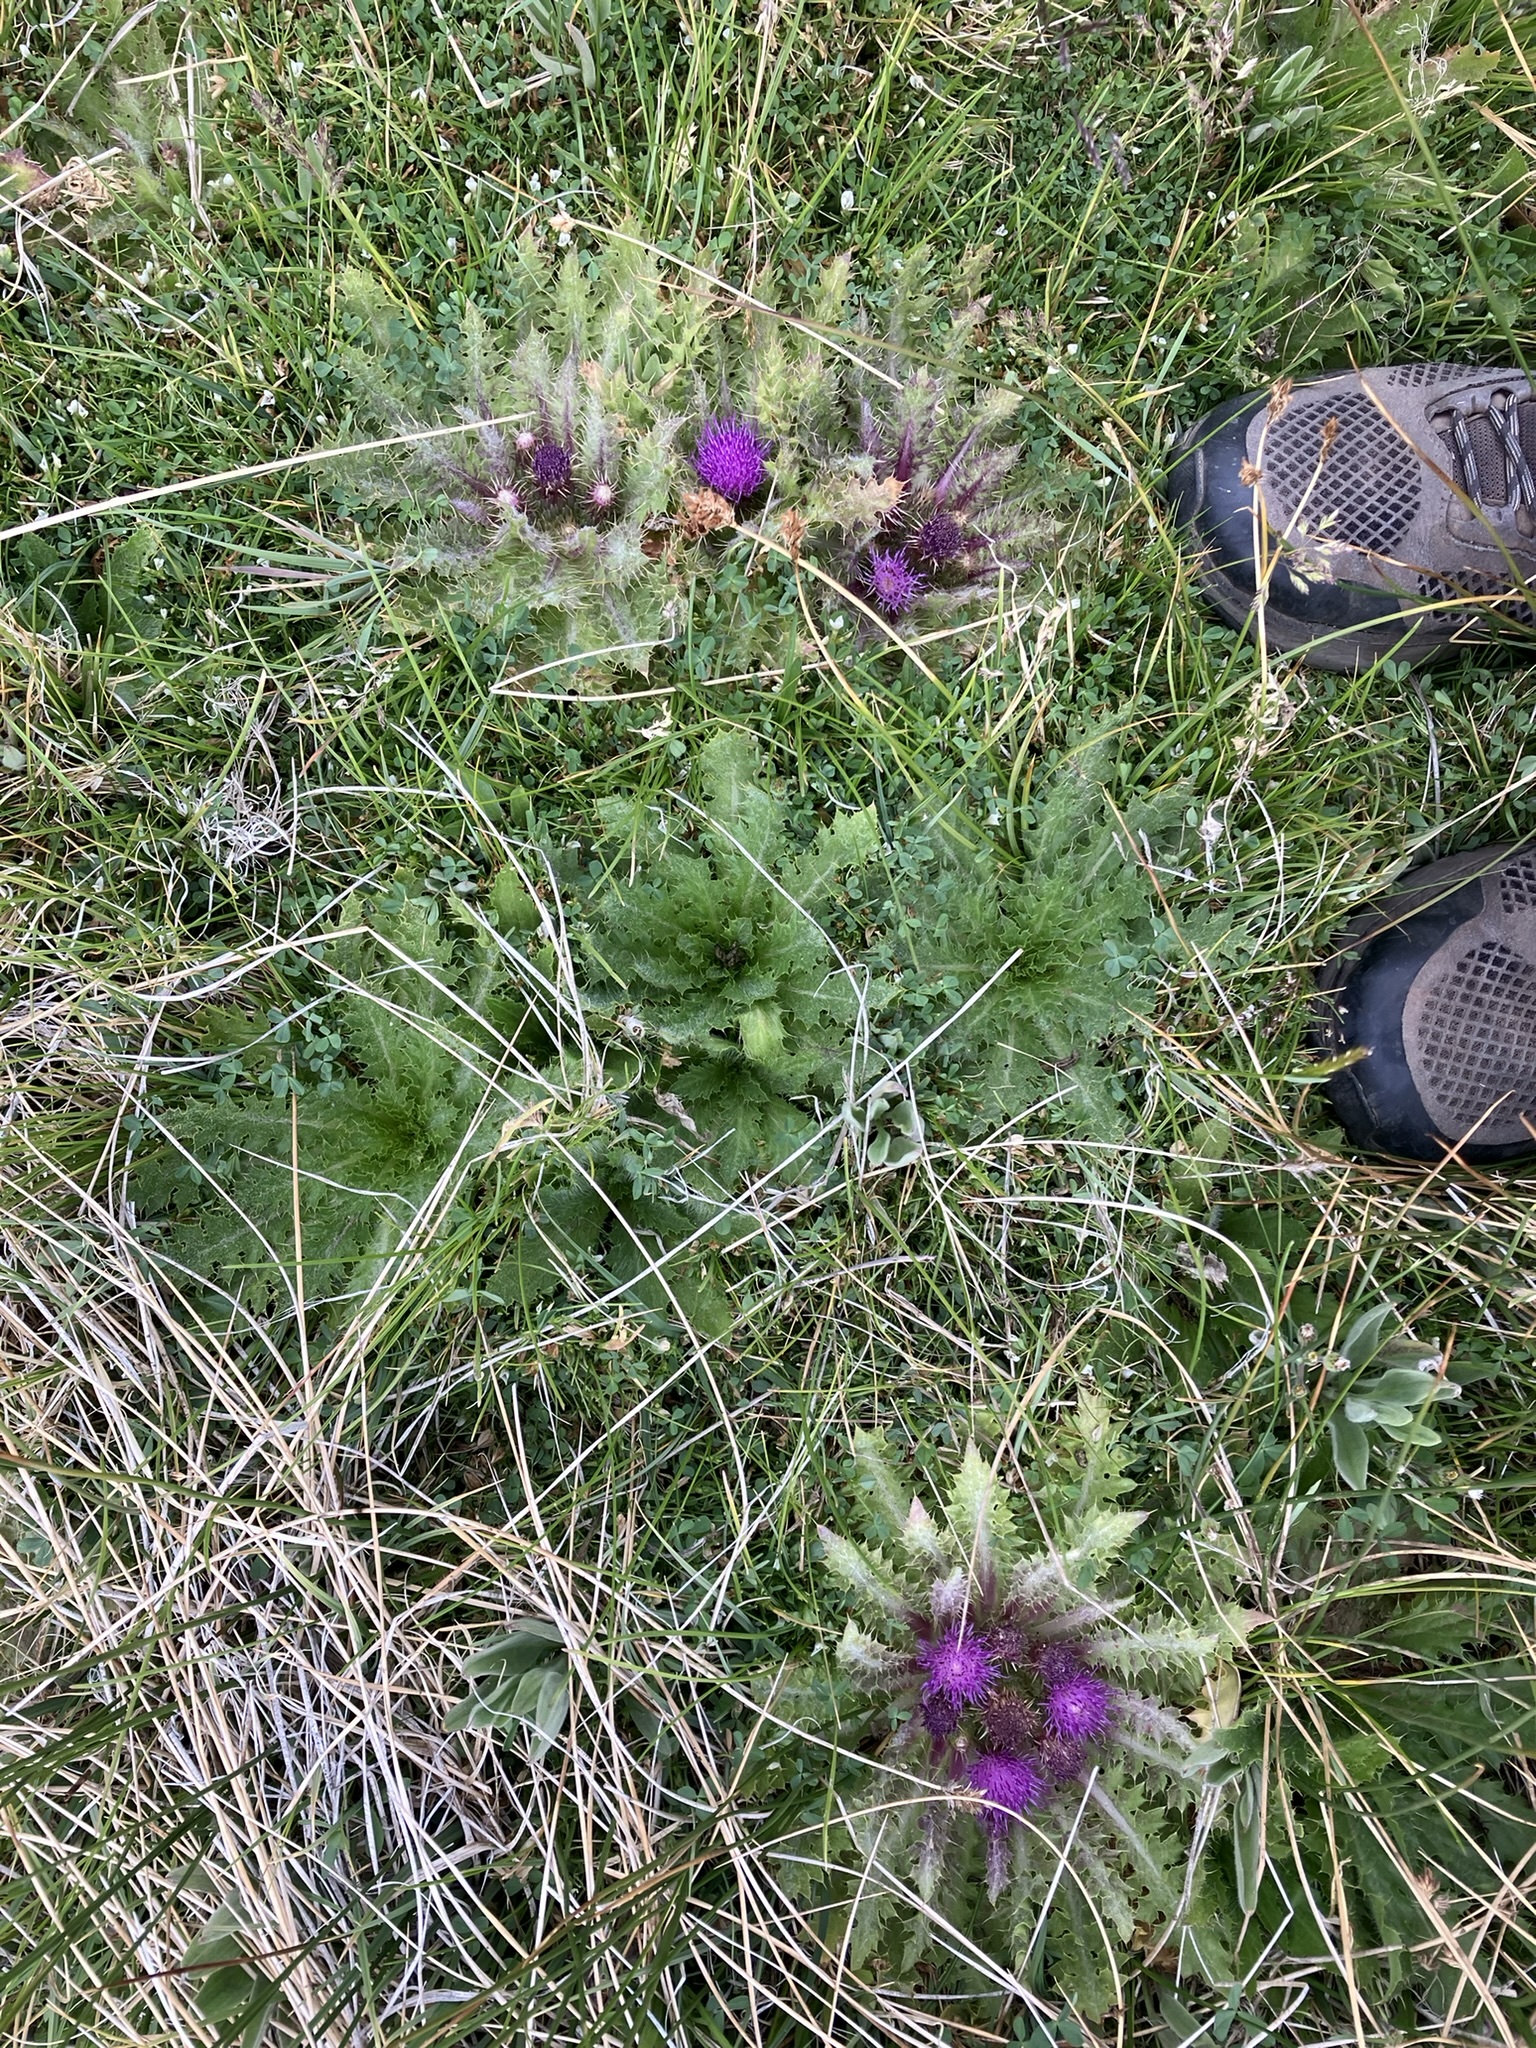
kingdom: Plantae
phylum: Tracheophyta
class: Magnoliopsida
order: Asterales
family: Asteraceae
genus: Cirsium
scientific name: Cirsium congdonii
